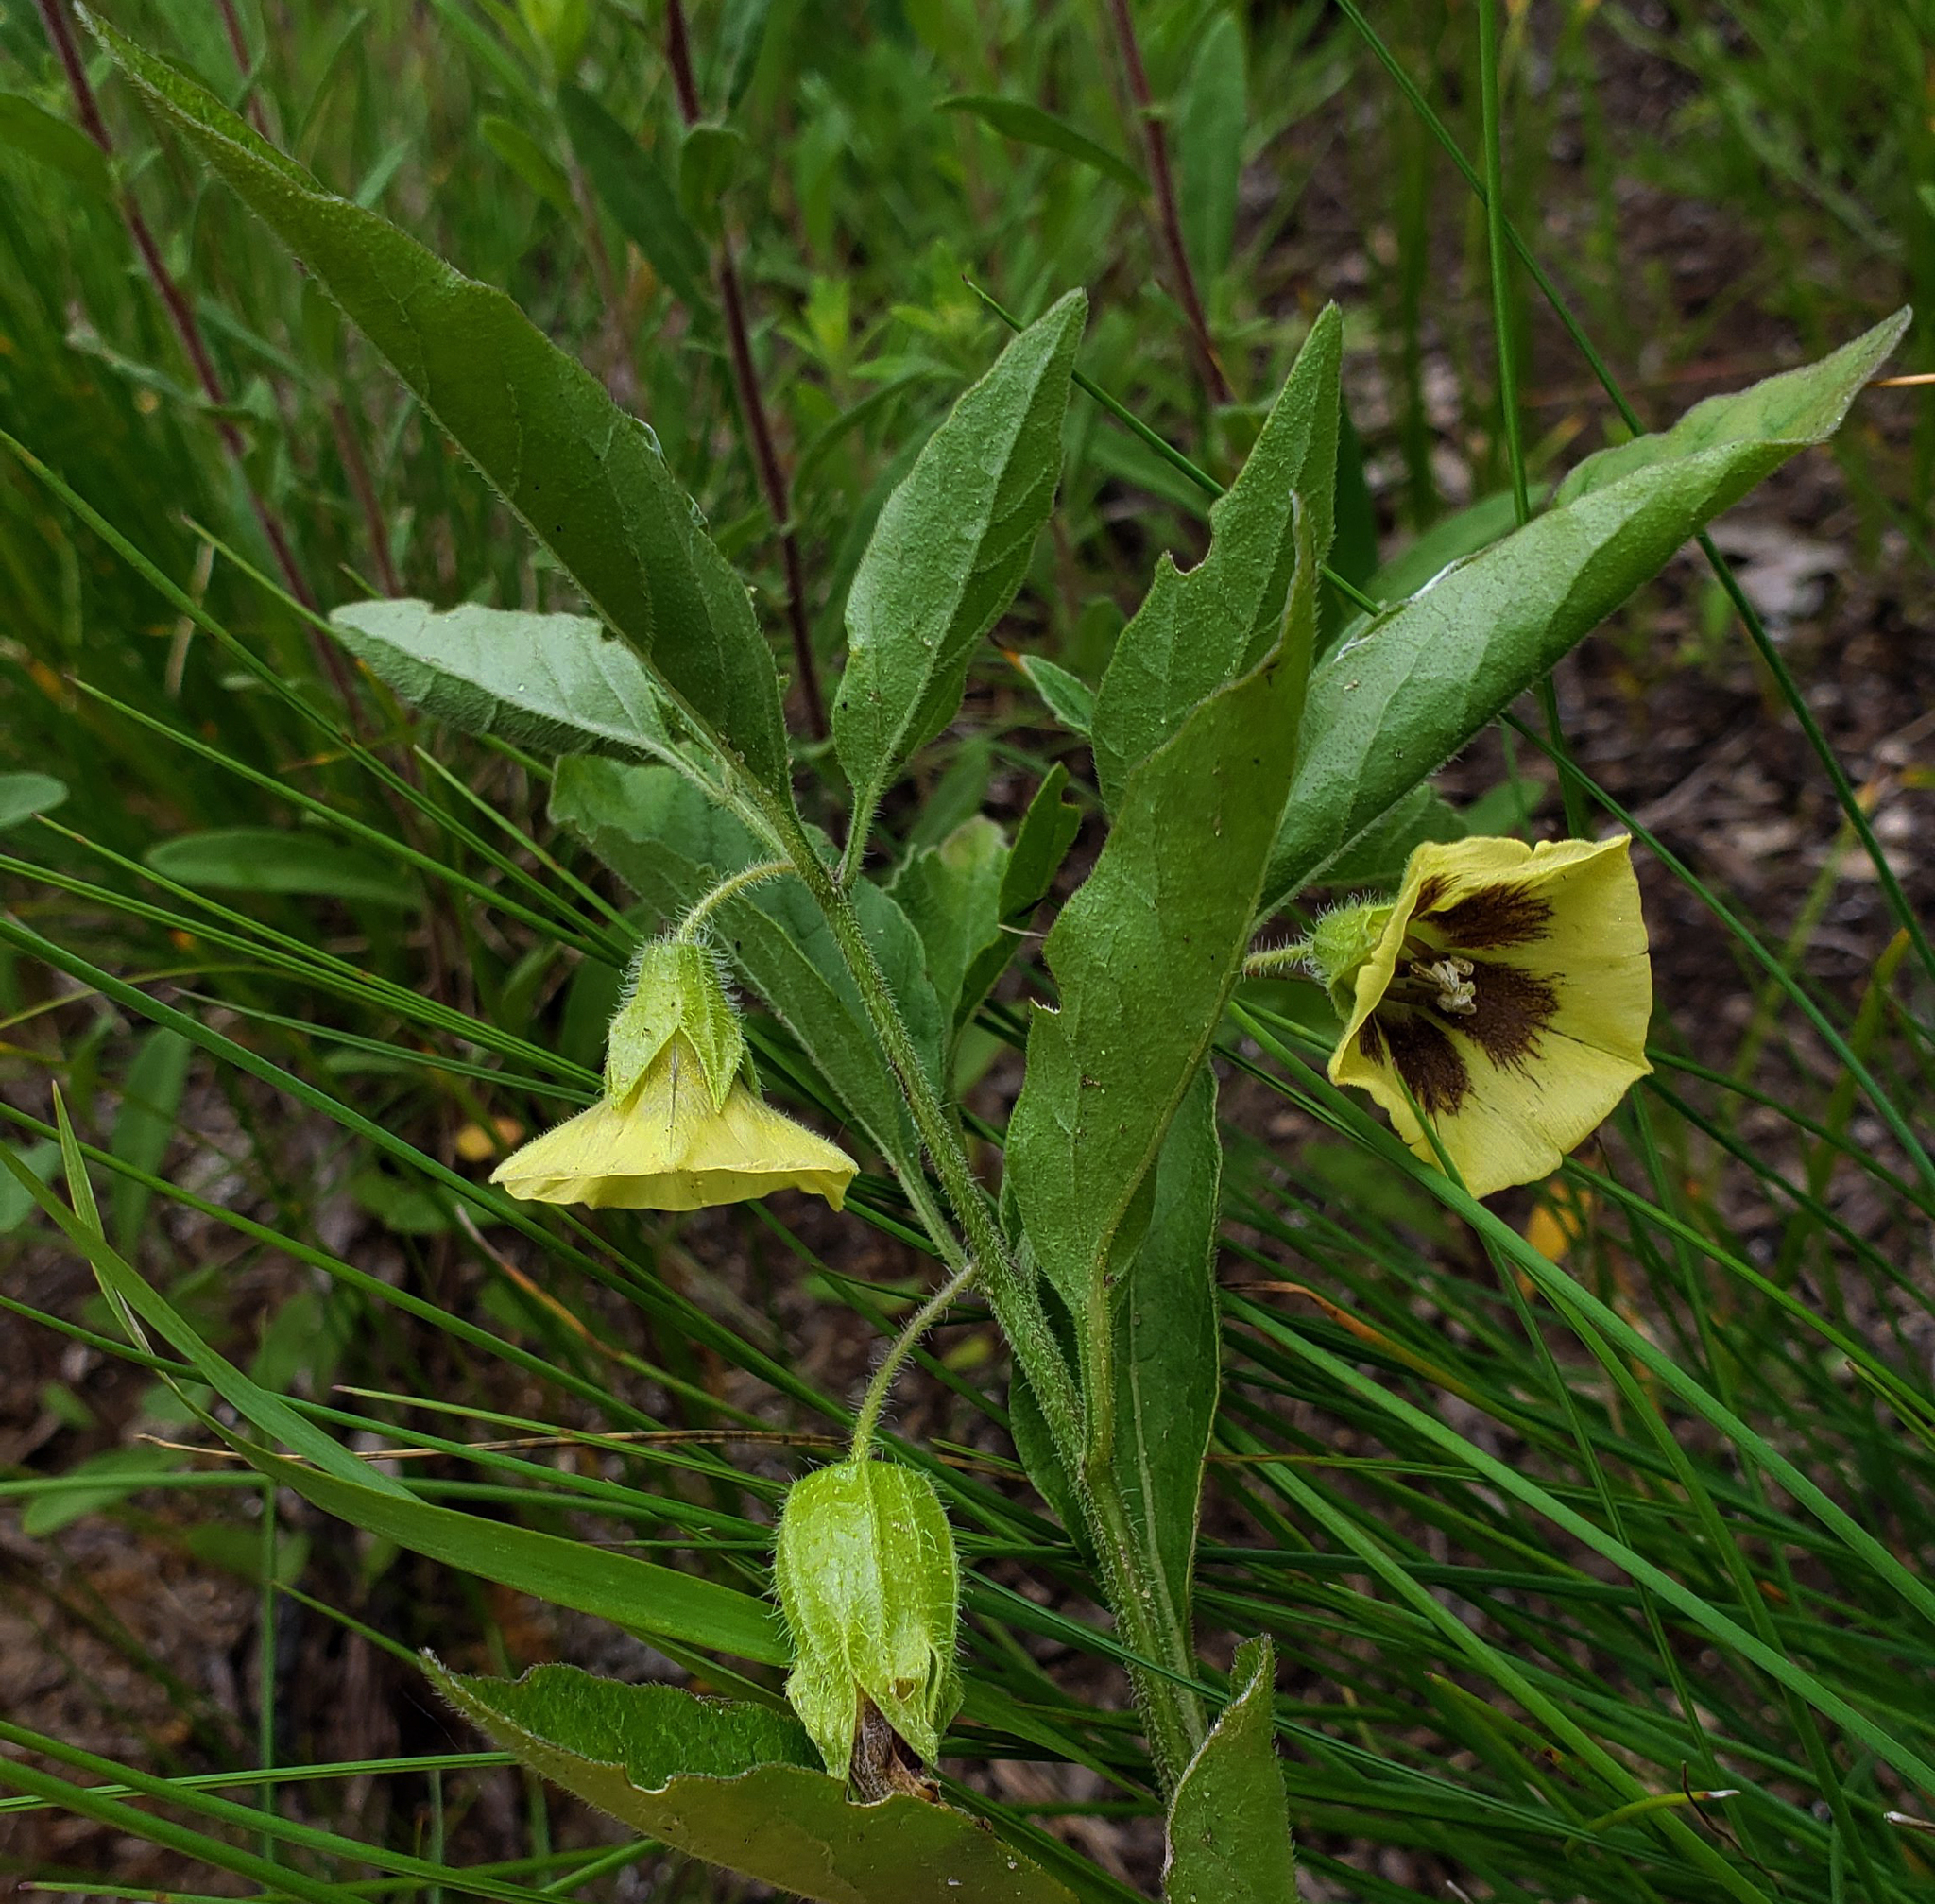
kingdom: Plantae
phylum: Tracheophyta
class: Magnoliopsida
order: Solanales
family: Solanaceae
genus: Physalis
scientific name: Physalis virginiana
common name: Virginia ground-cherry
